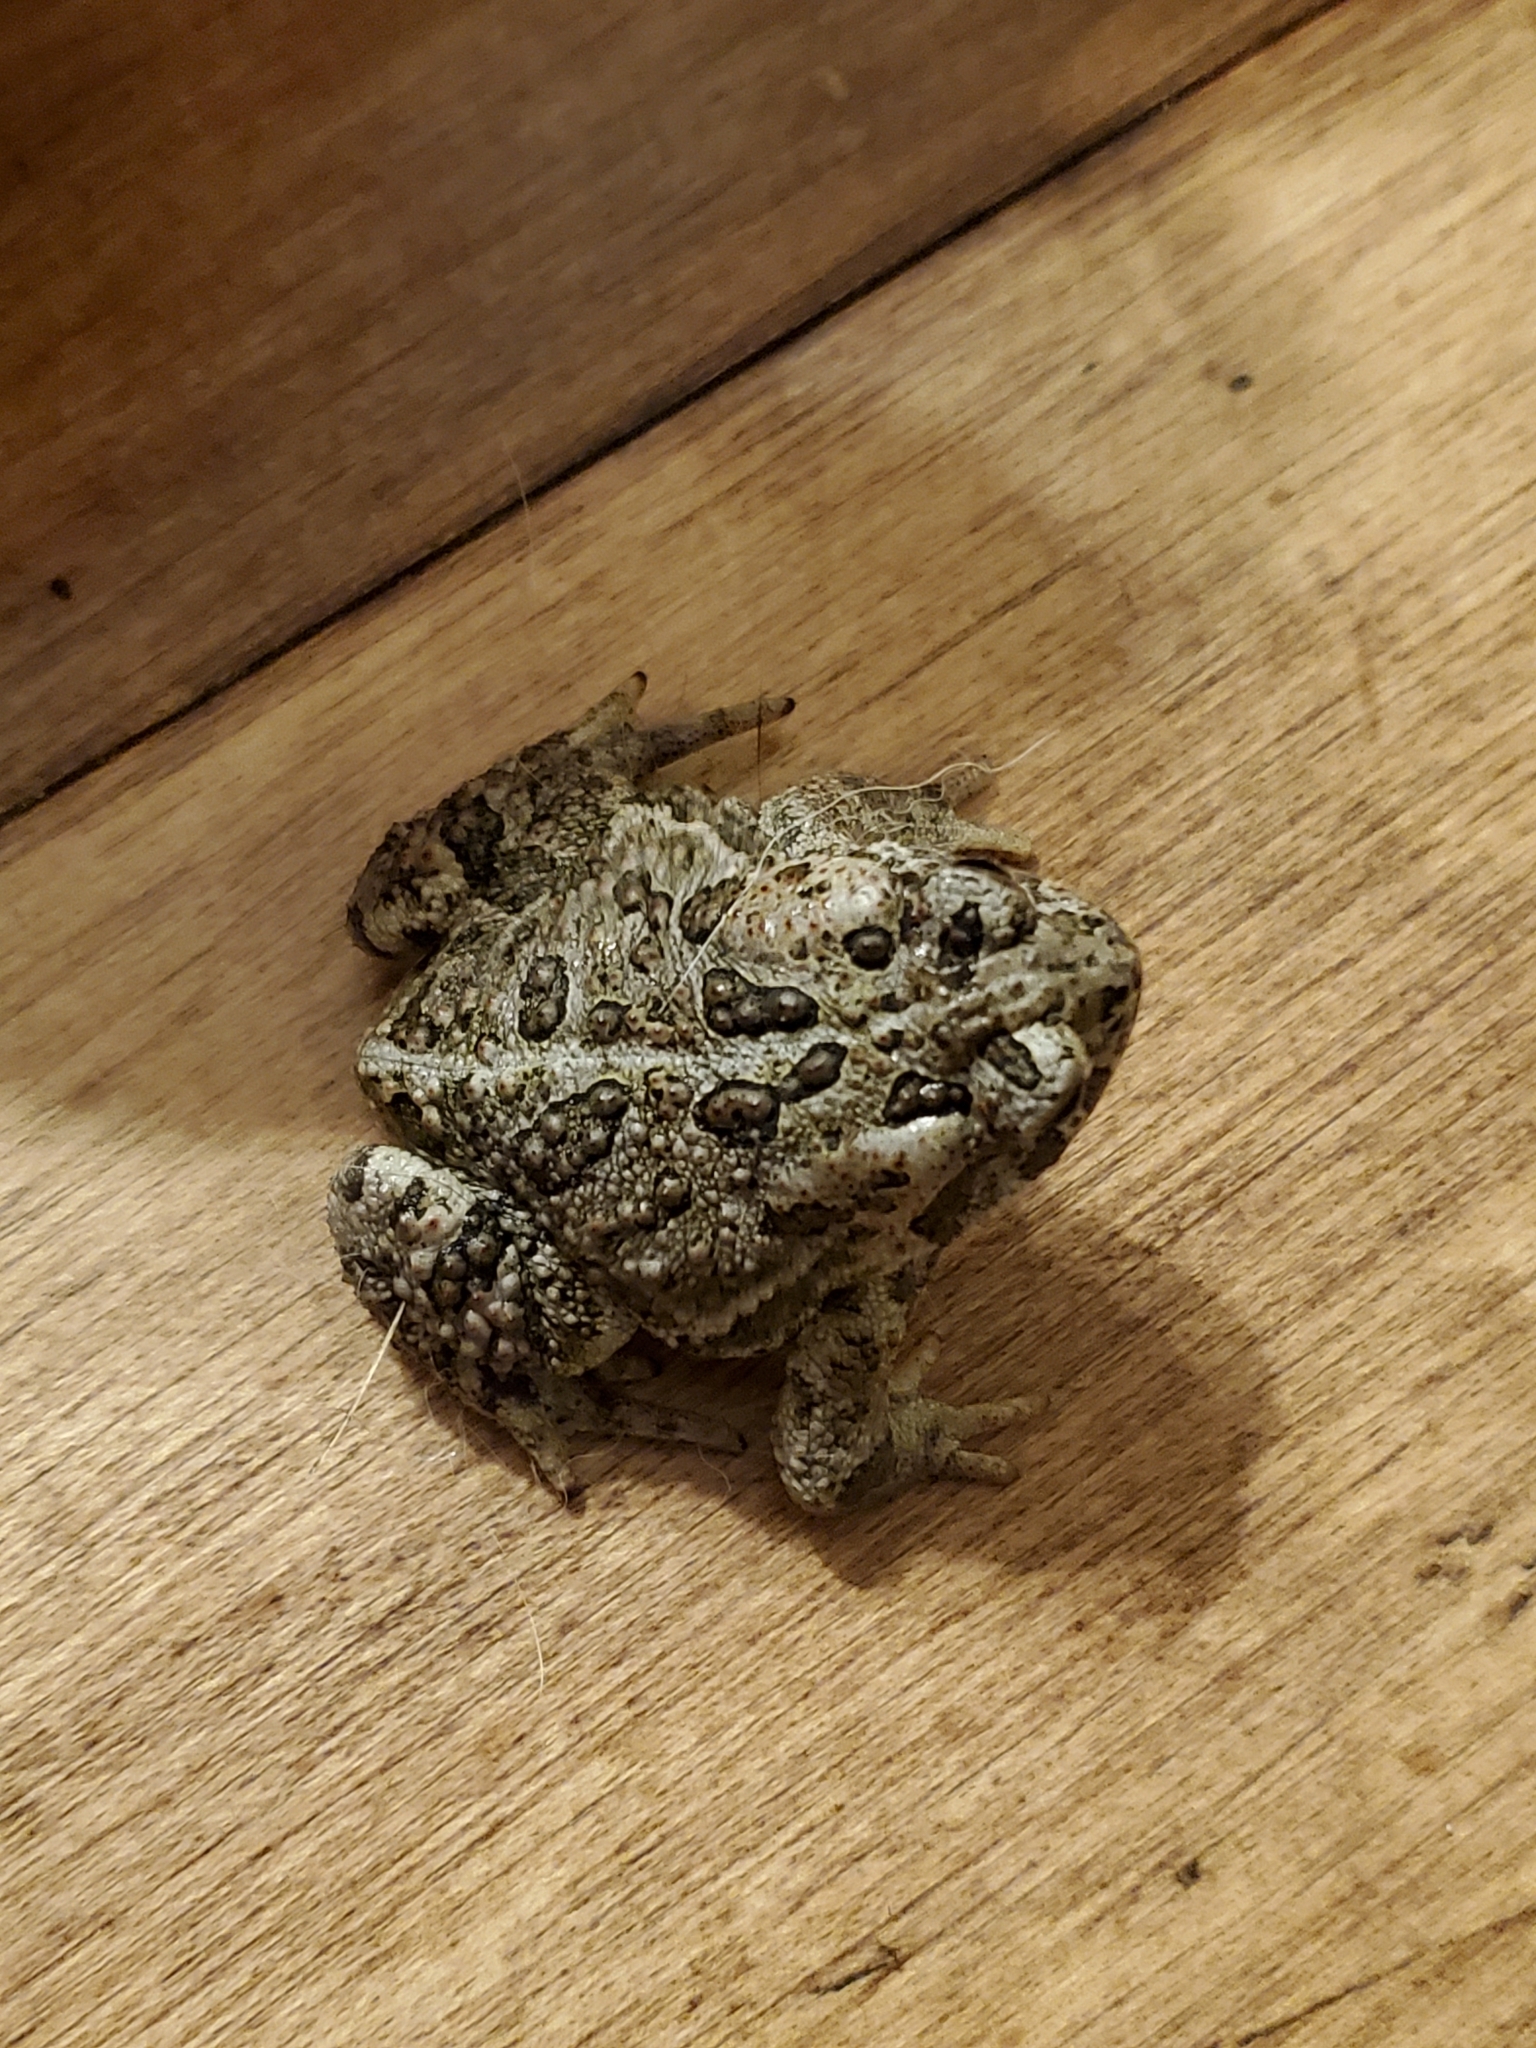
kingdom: Animalia
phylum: Chordata
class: Amphibia
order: Anura
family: Bufonidae
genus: Anaxyrus
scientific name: Anaxyrus hemiophrys
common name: Canadian toad
